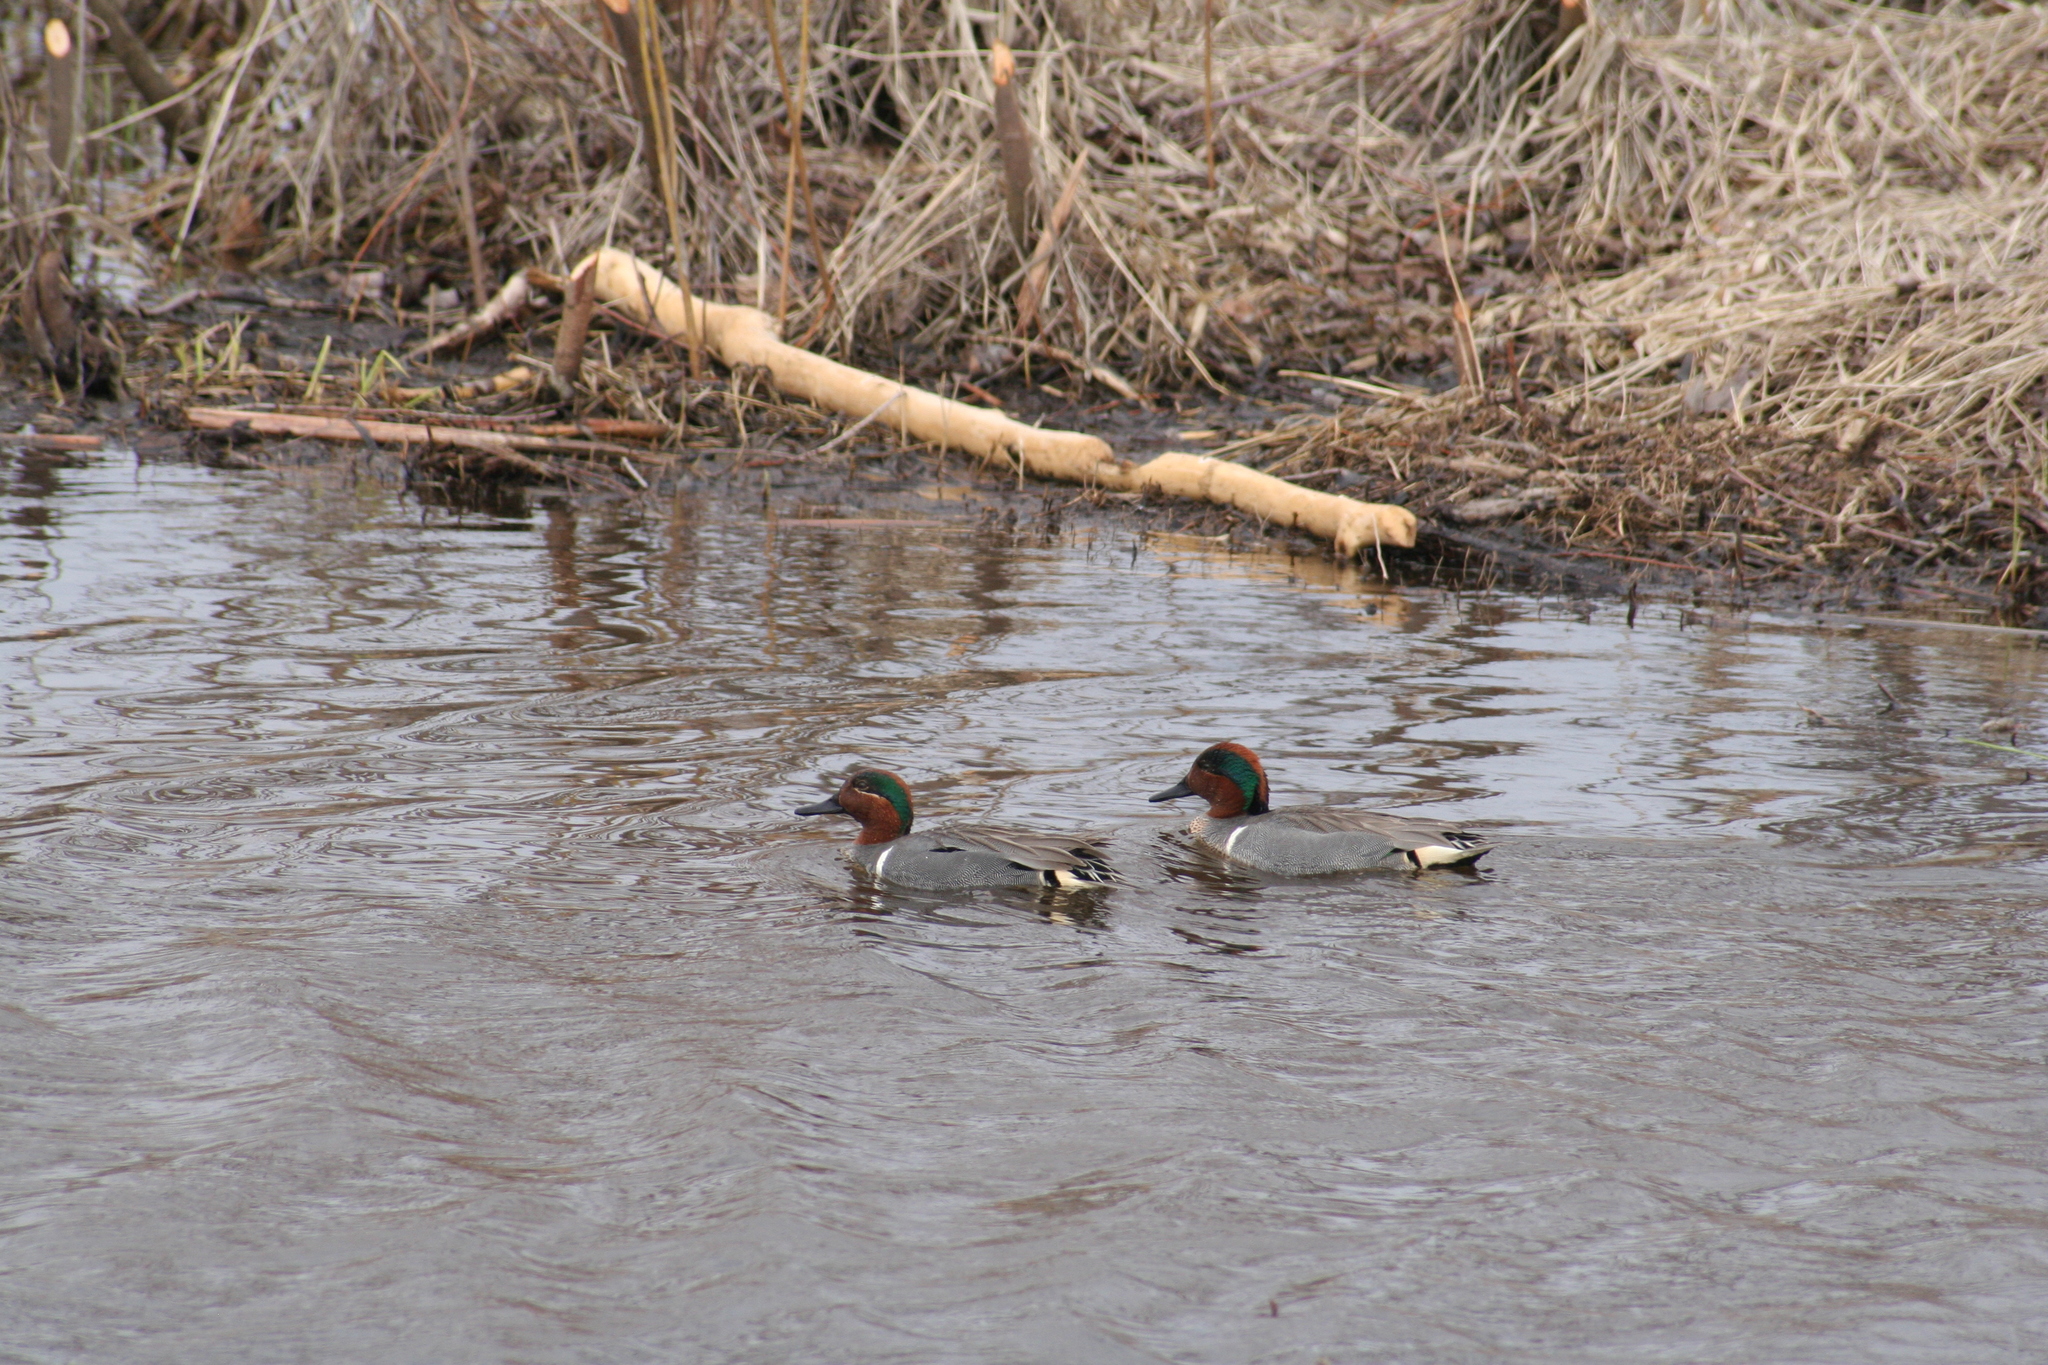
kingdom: Animalia
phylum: Chordata
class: Aves
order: Anseriformes
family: Anatidae
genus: Anas
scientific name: Anas crecca
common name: Eurasian teal
